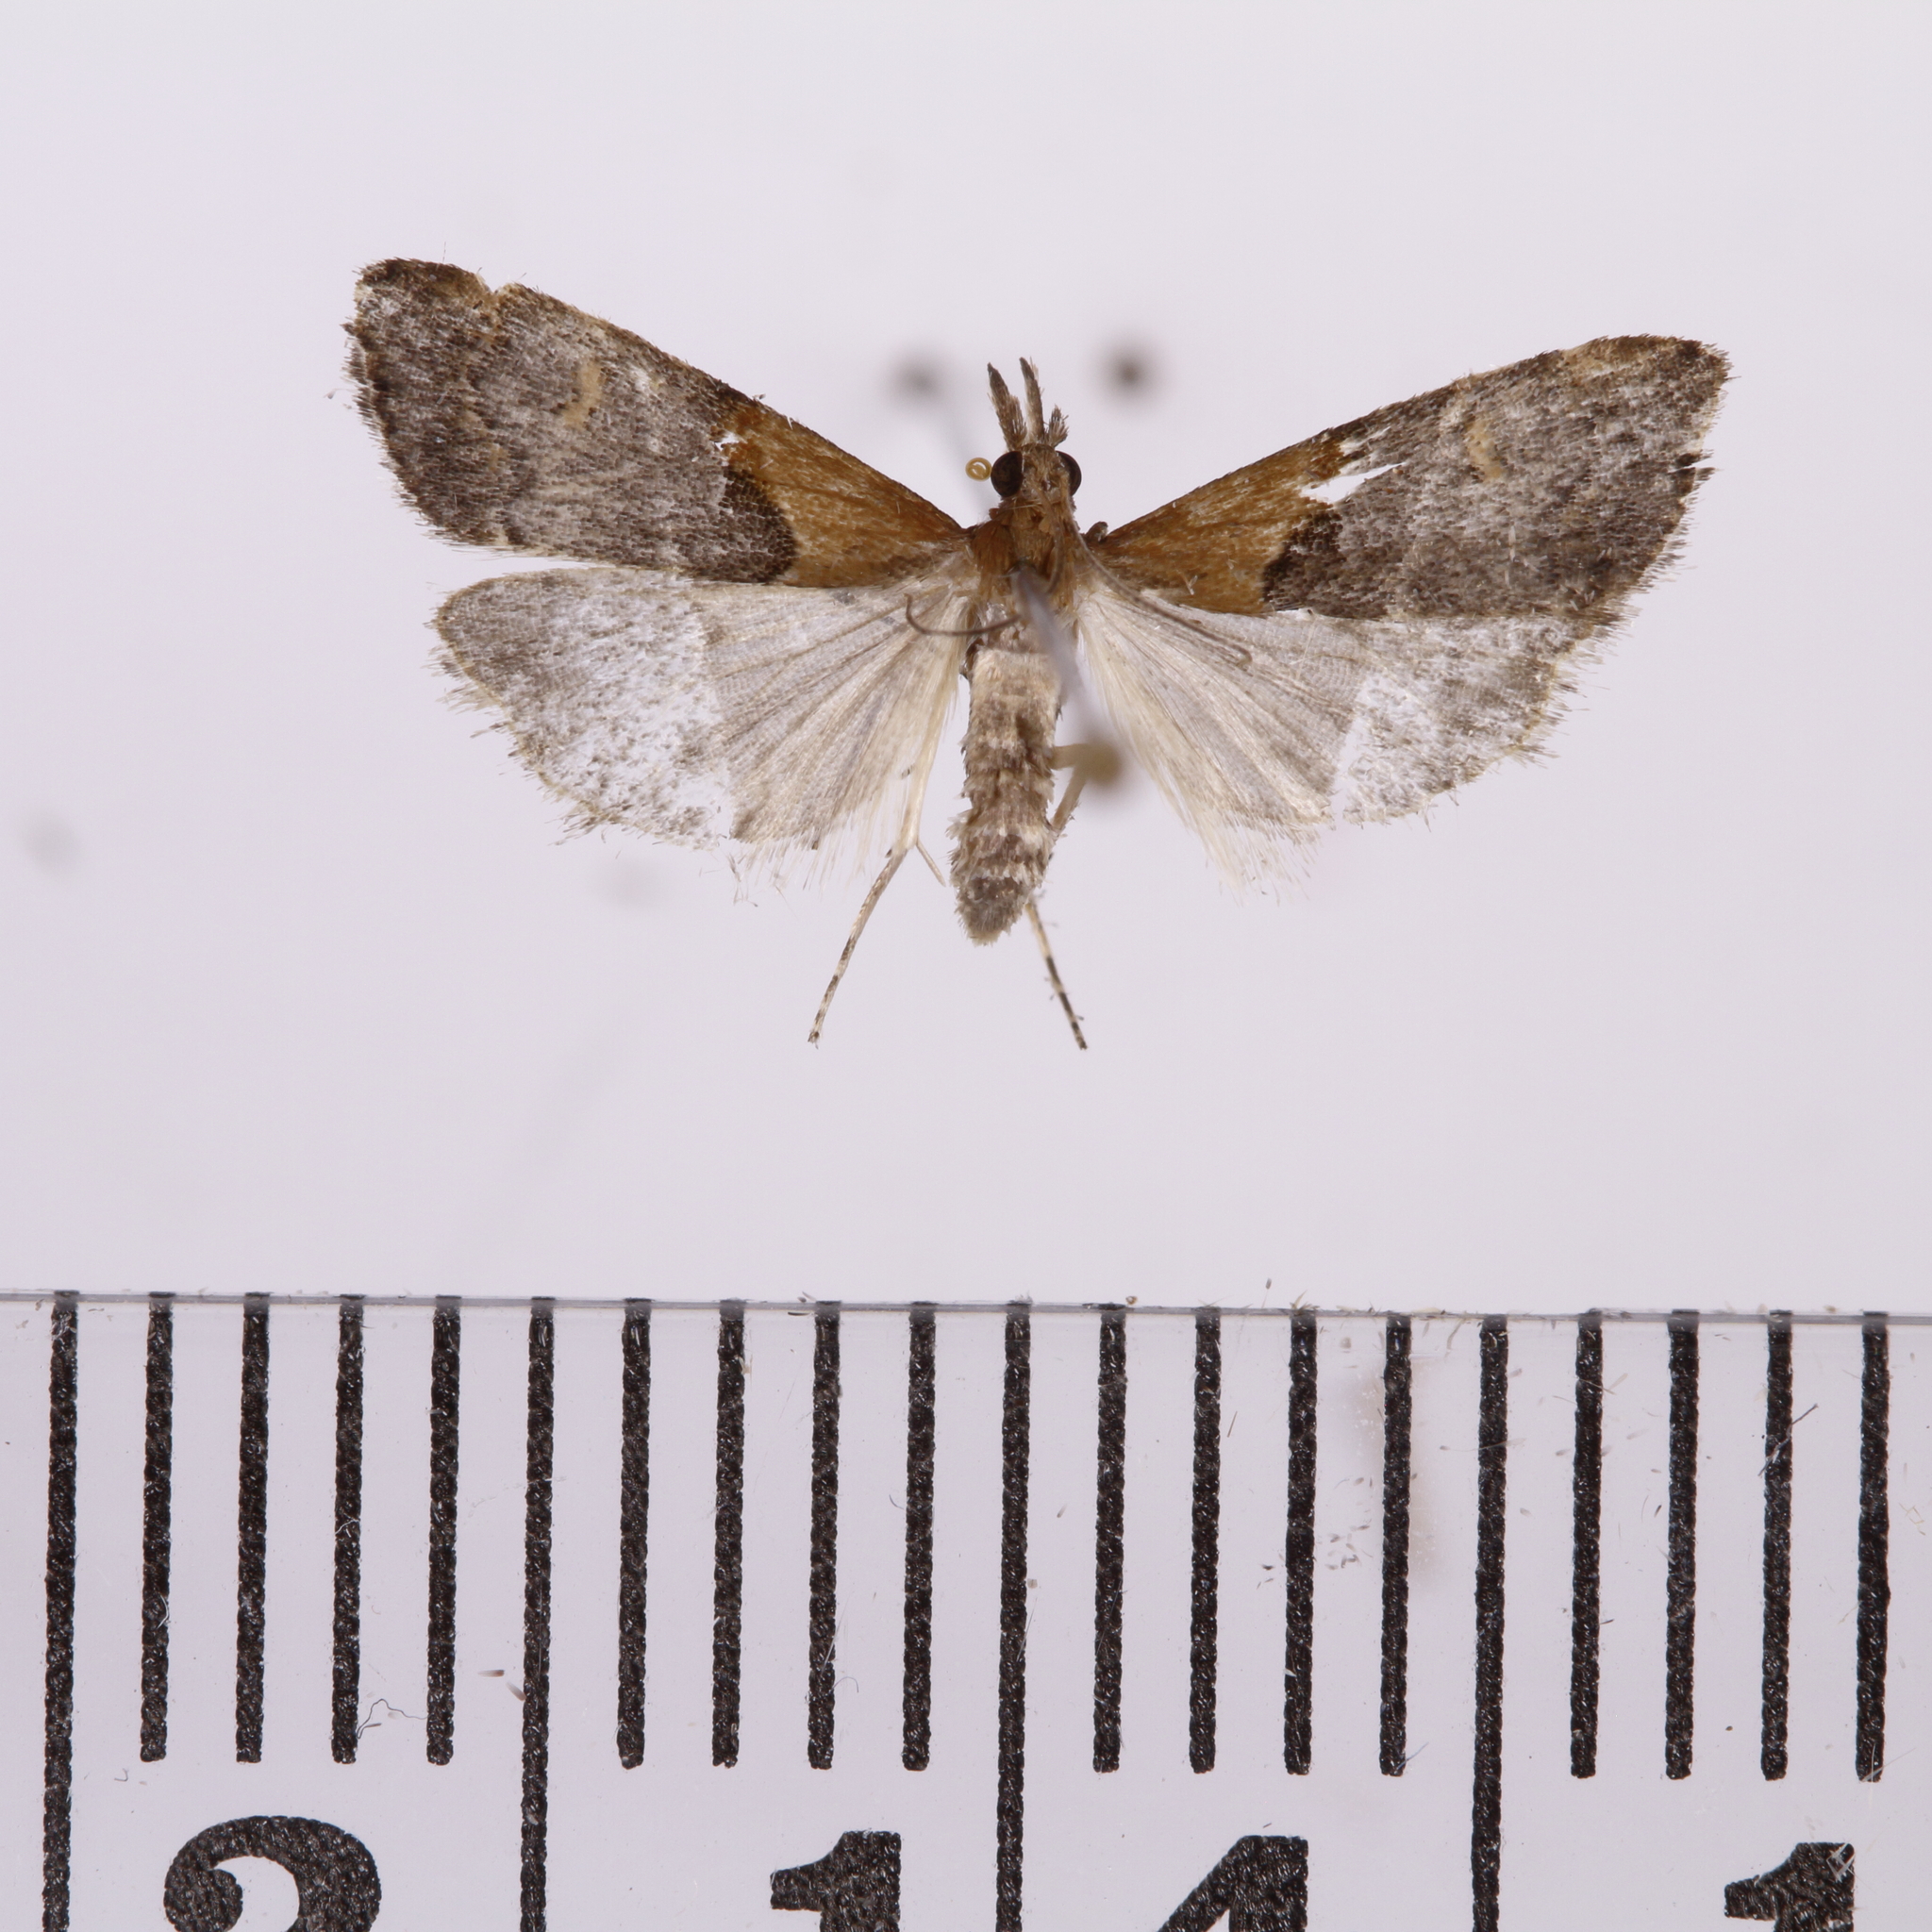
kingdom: Animalia
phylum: Arthropoda
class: Insecta
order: Lepidoptera
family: Crambidae
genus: Antiscopa
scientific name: Antiscopa epicomia
